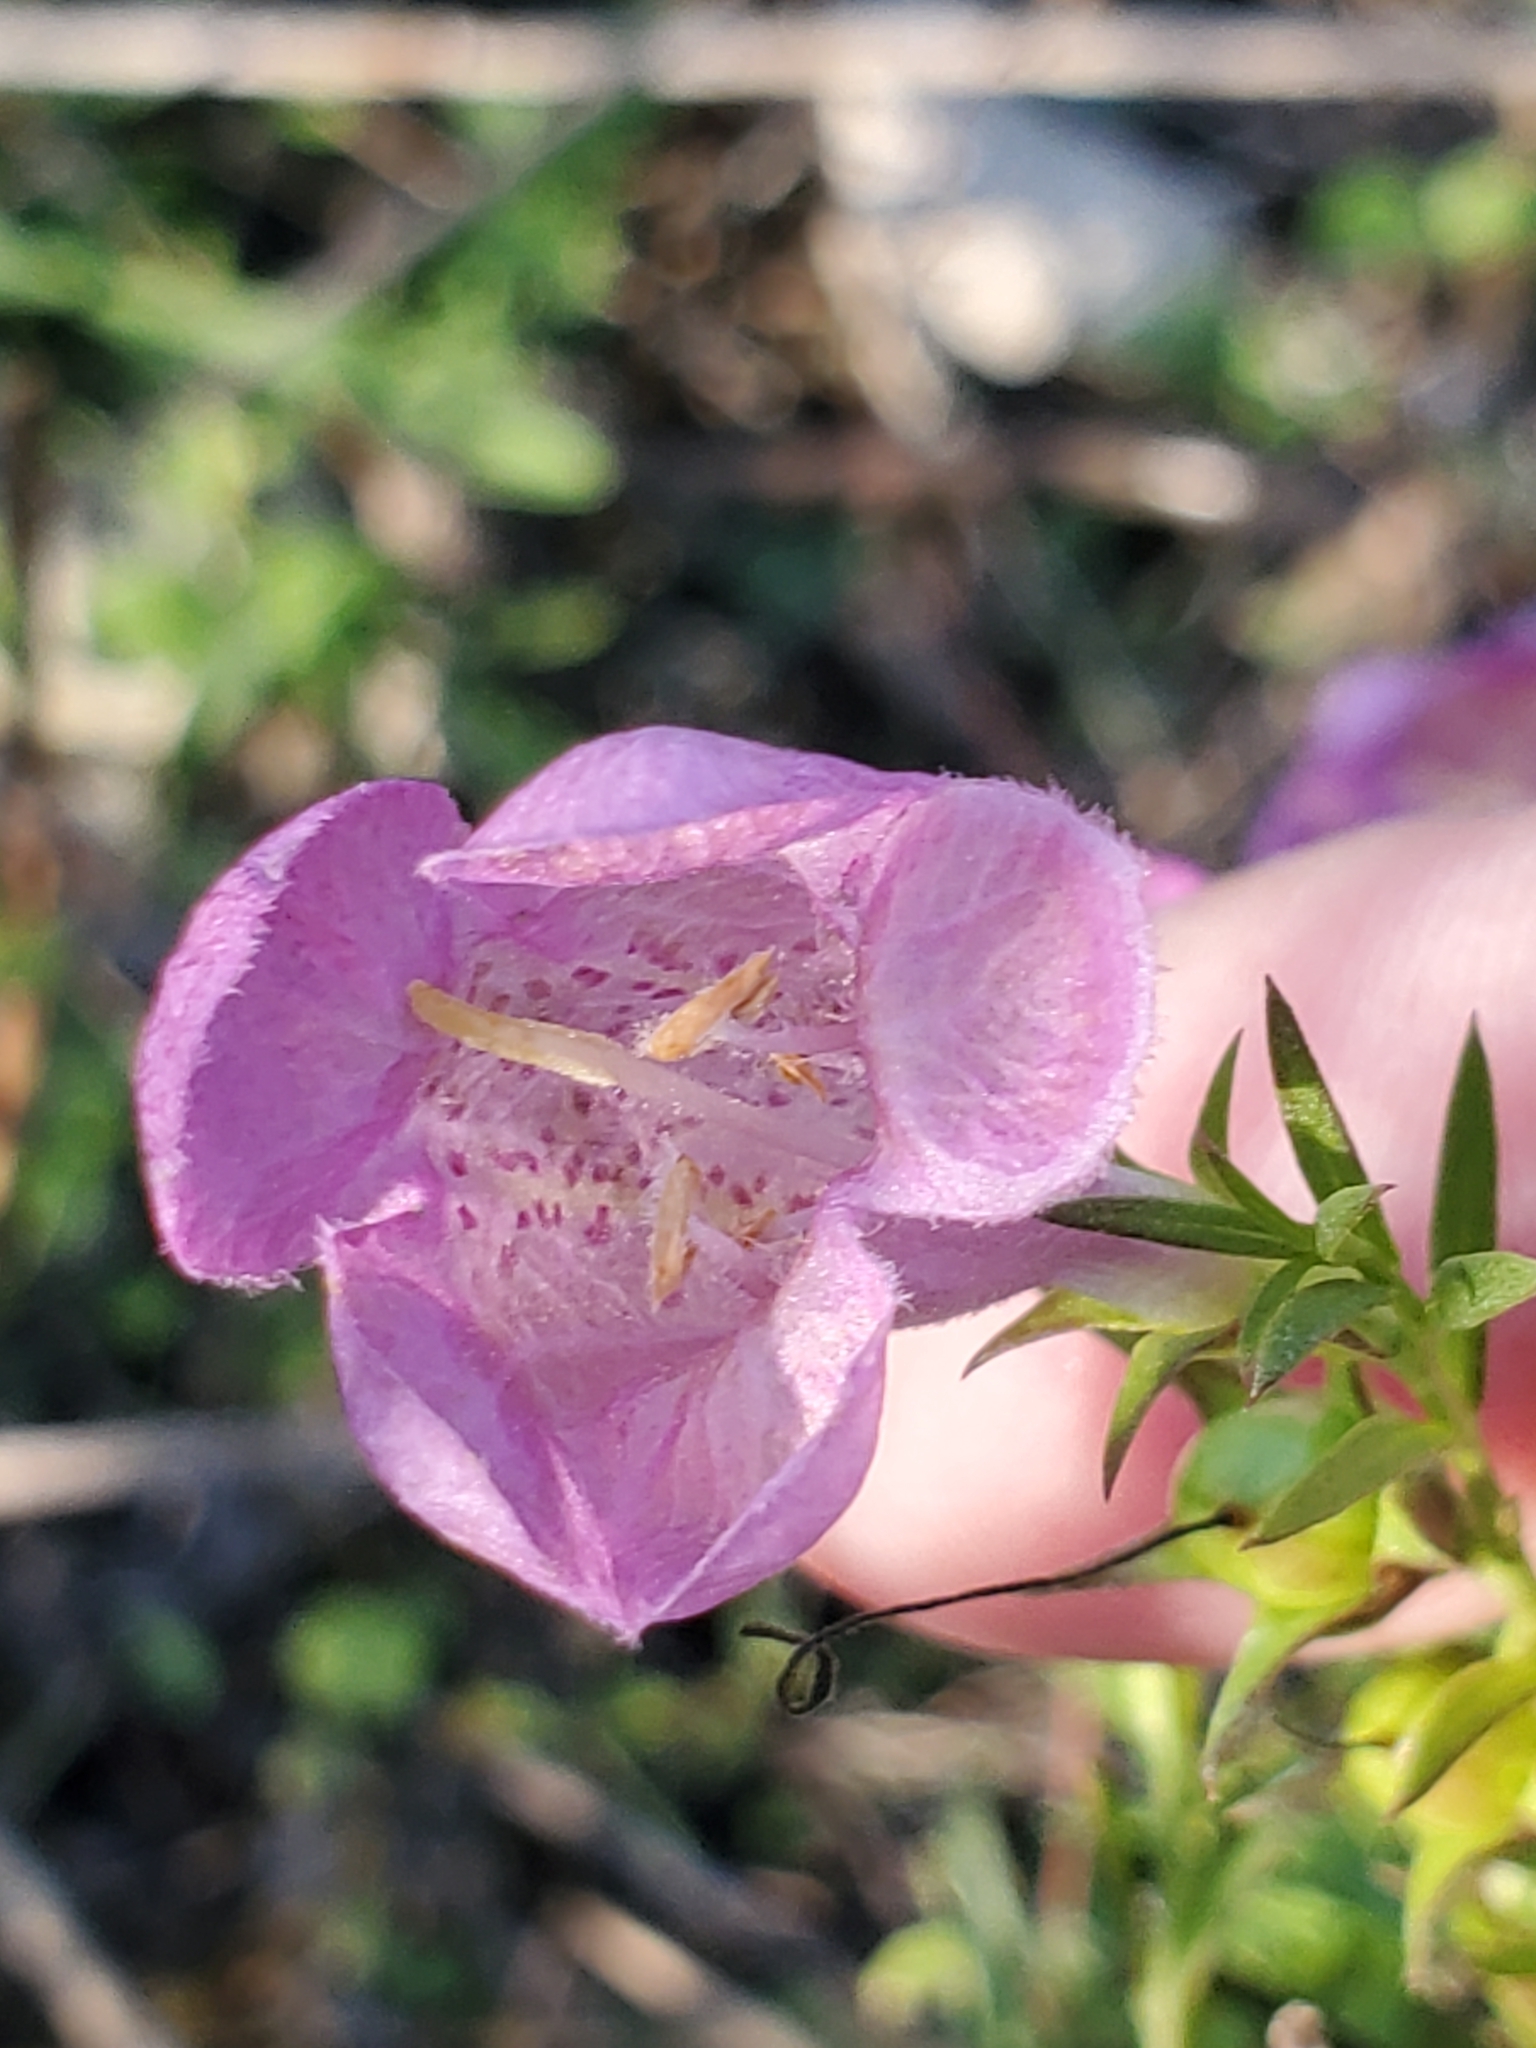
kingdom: Plantae
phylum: Tracheophyta
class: Magnoliopsida
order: Lamiales
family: Orobanchaceae
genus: Agalinis
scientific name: Agalinis heterophylla
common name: Prairie agalinis
